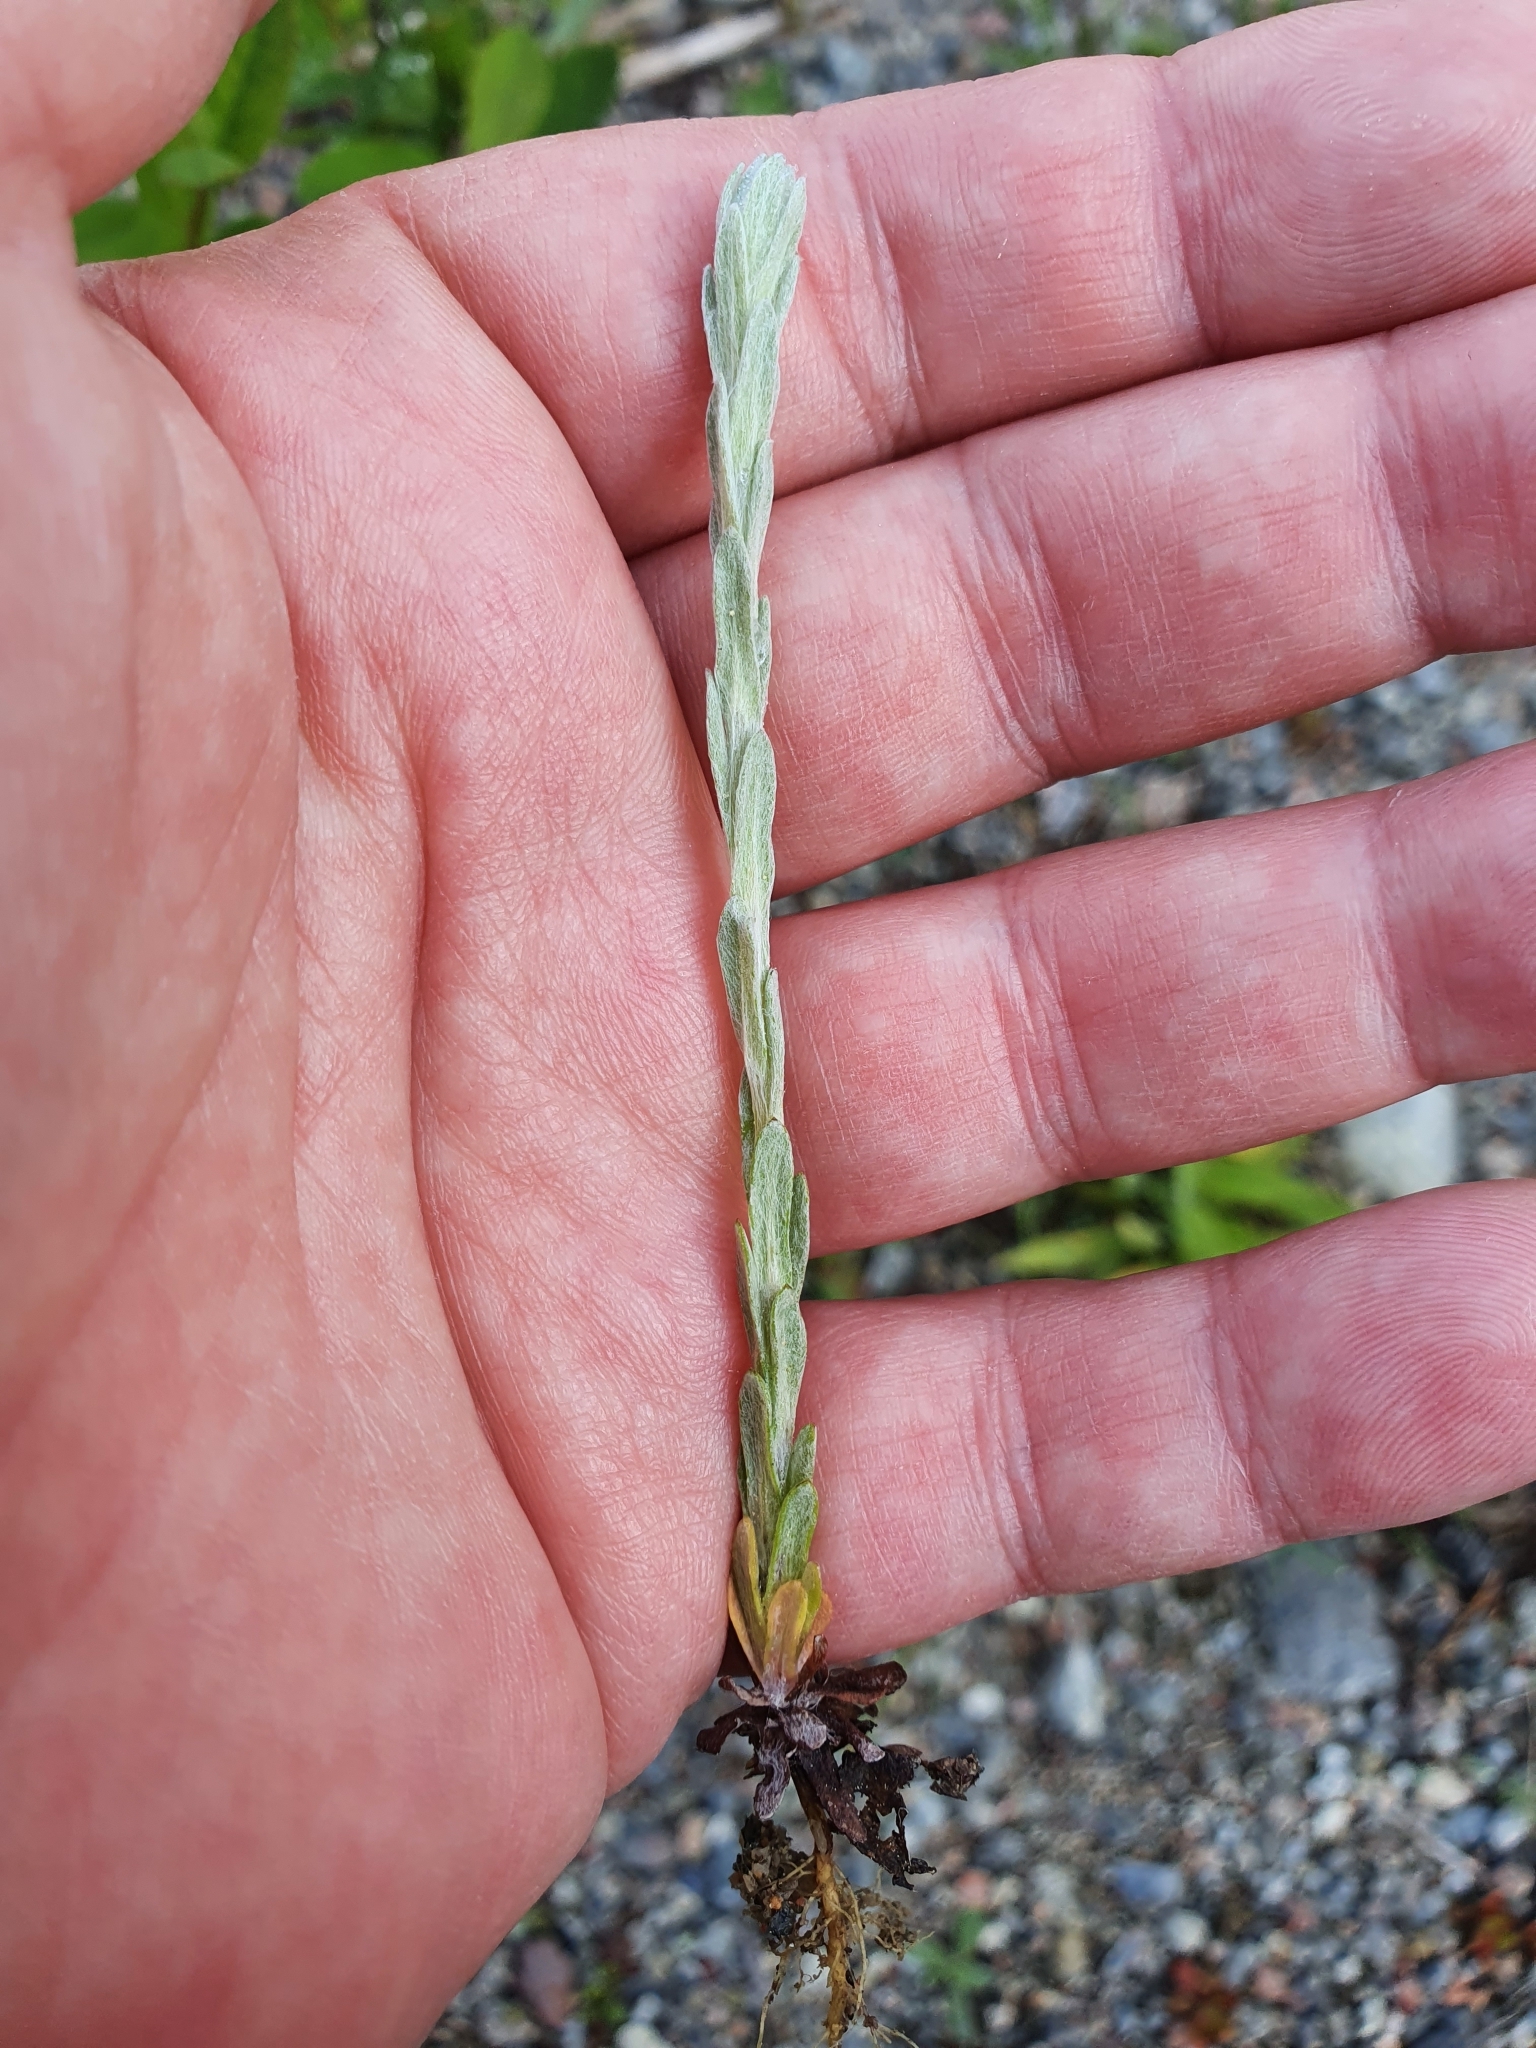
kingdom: Plantae
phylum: Tracheophyta
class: Magnoliopsida
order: Asterales
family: Asteraceae
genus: Filago
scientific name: Filago arvensis
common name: Field cudweed
